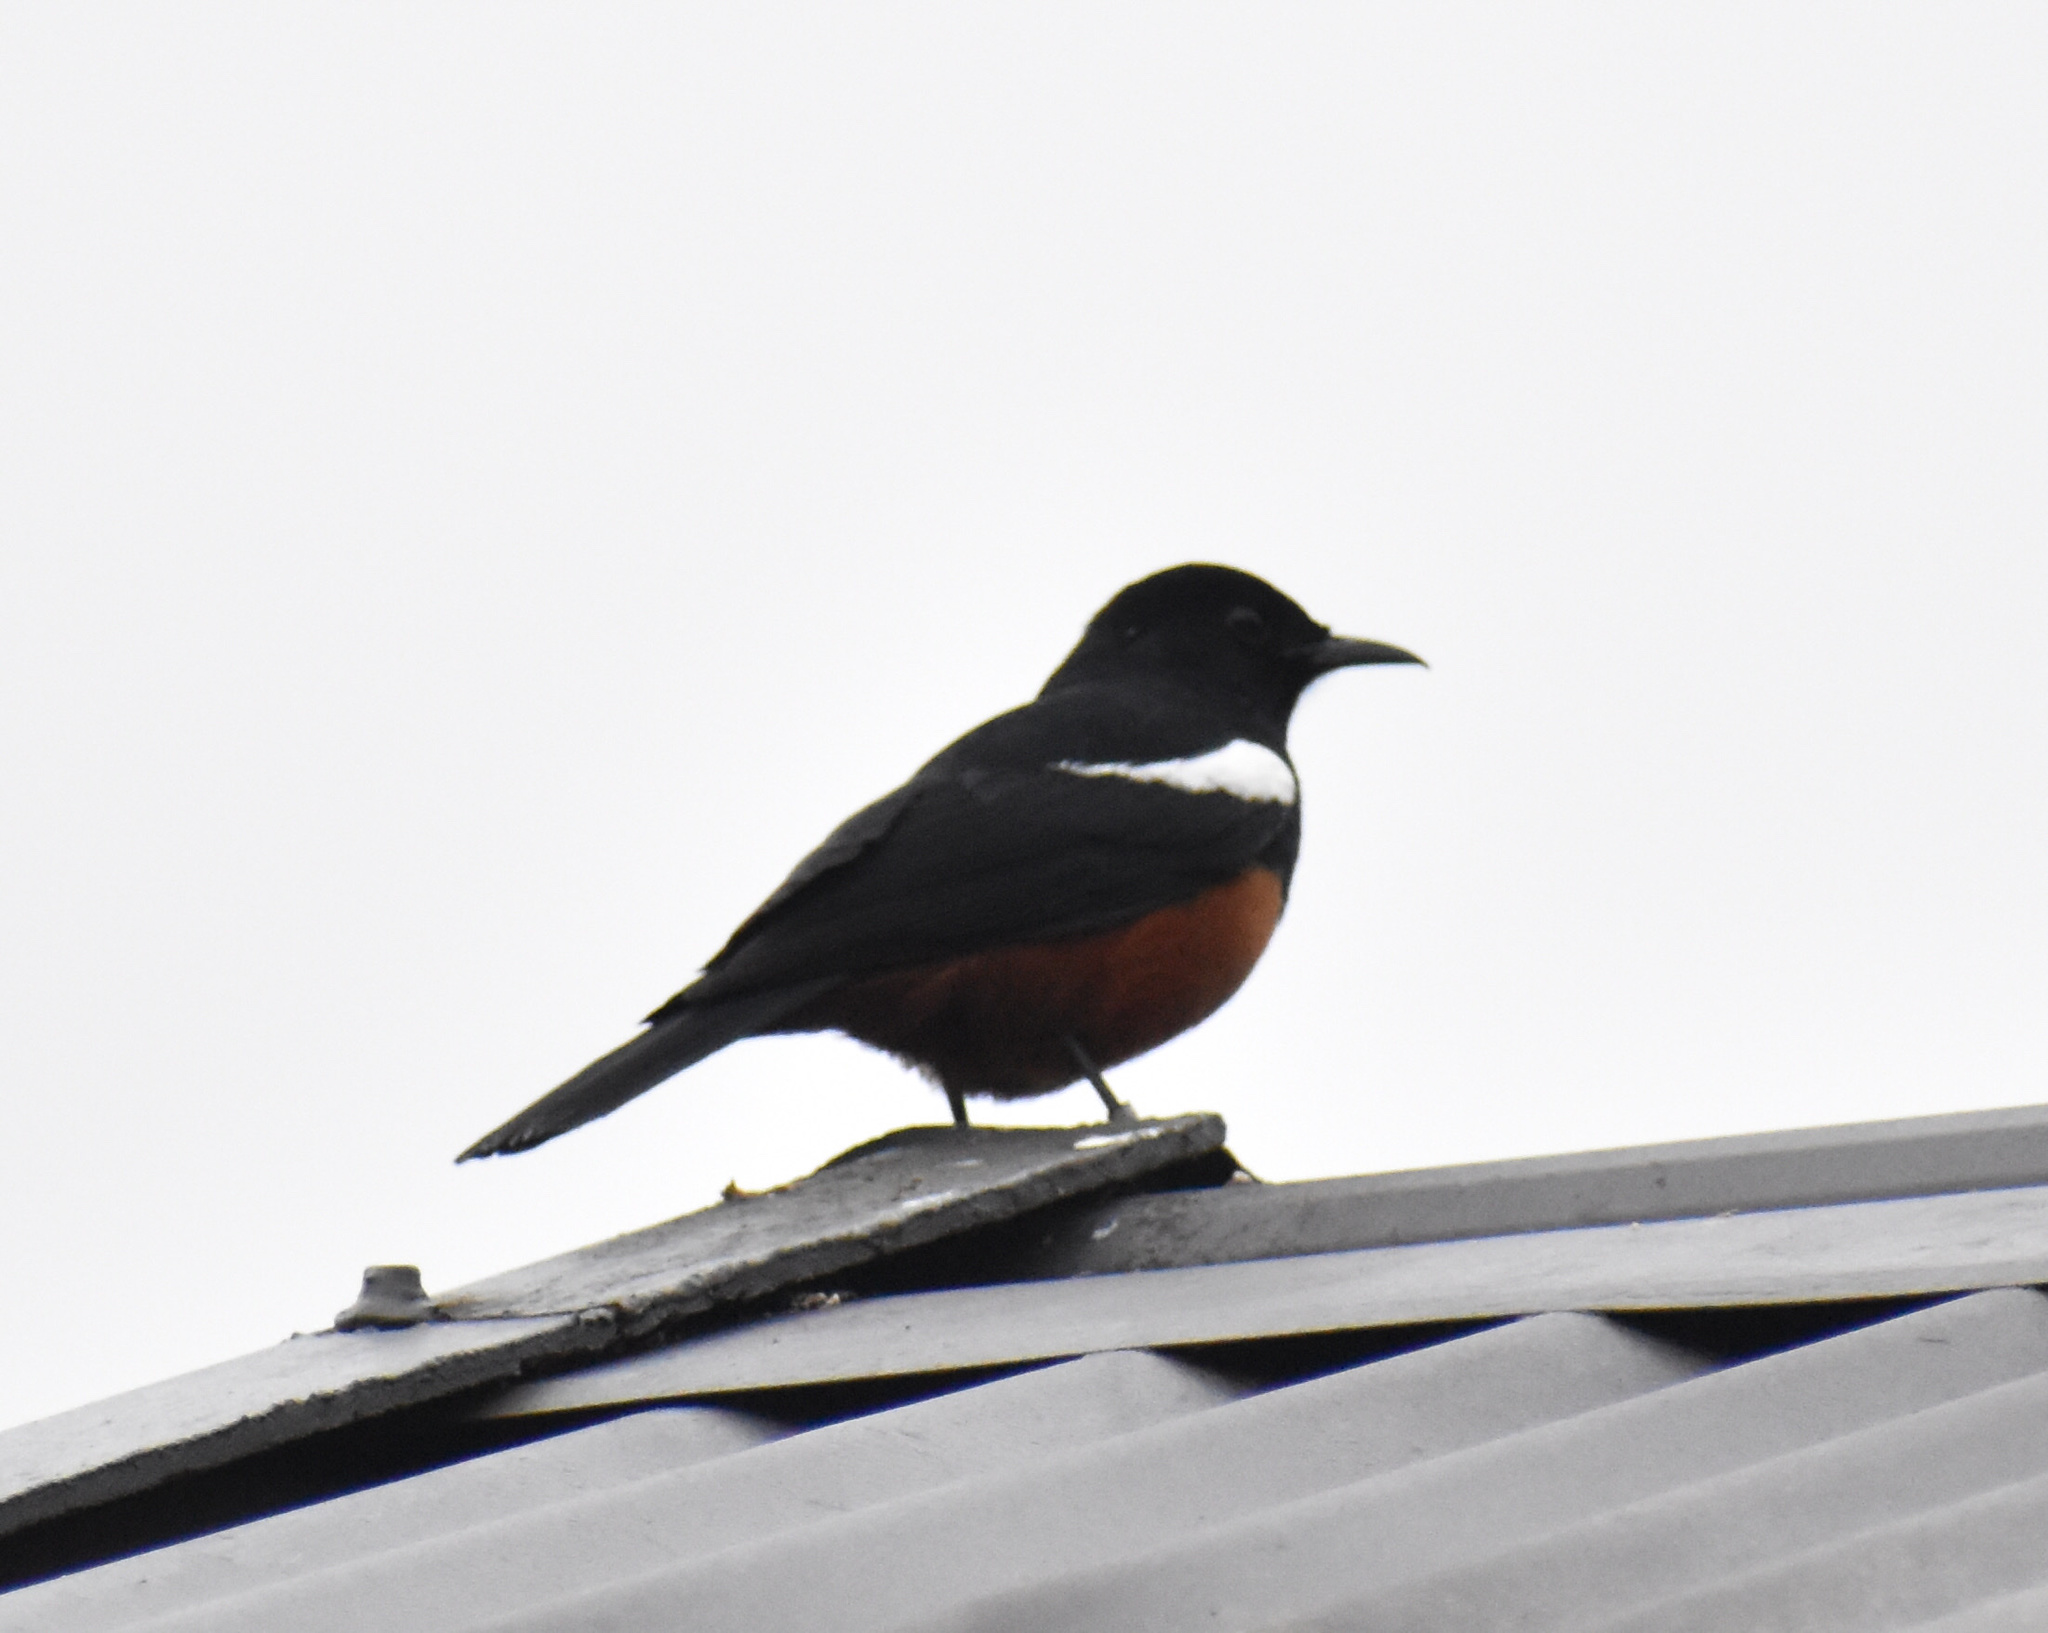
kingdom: Animalia
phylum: Chordata
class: Aves
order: Passeriformes
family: Muscicapidae
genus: Thamnolaea
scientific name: Thamnolaea cinnamomeiventris
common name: Mocking cliff chat
